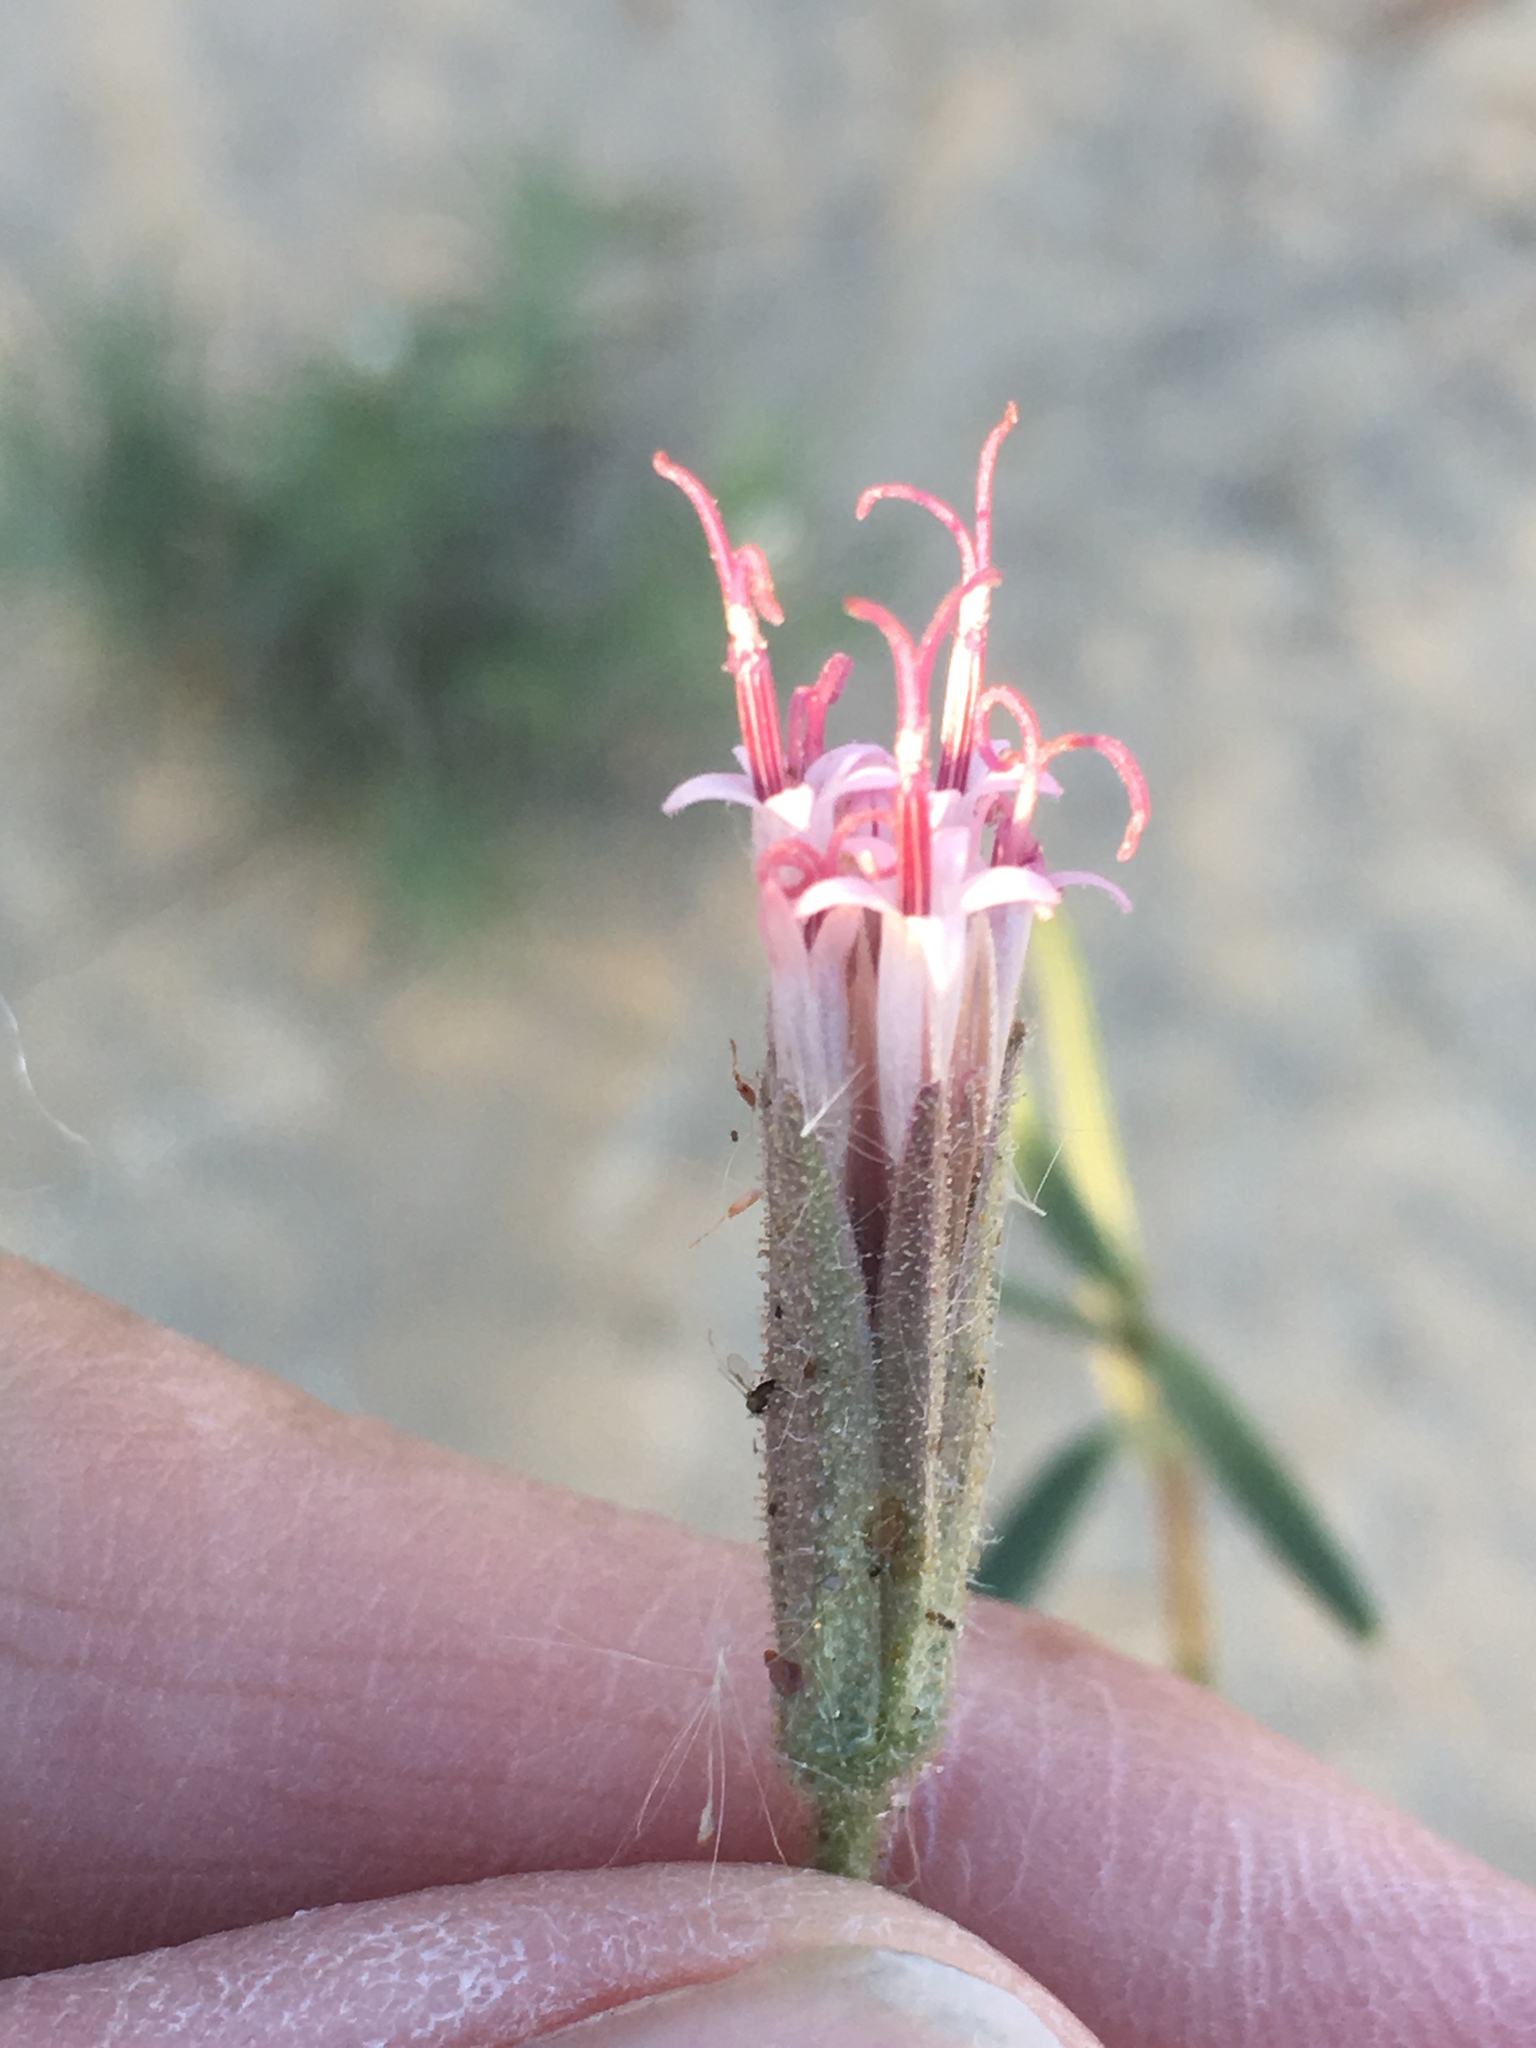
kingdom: Plantae
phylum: Tracheophyta
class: Magnoliopsida
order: Asterales
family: Asteraceae
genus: Palafoxia
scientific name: Palafoxia arida
